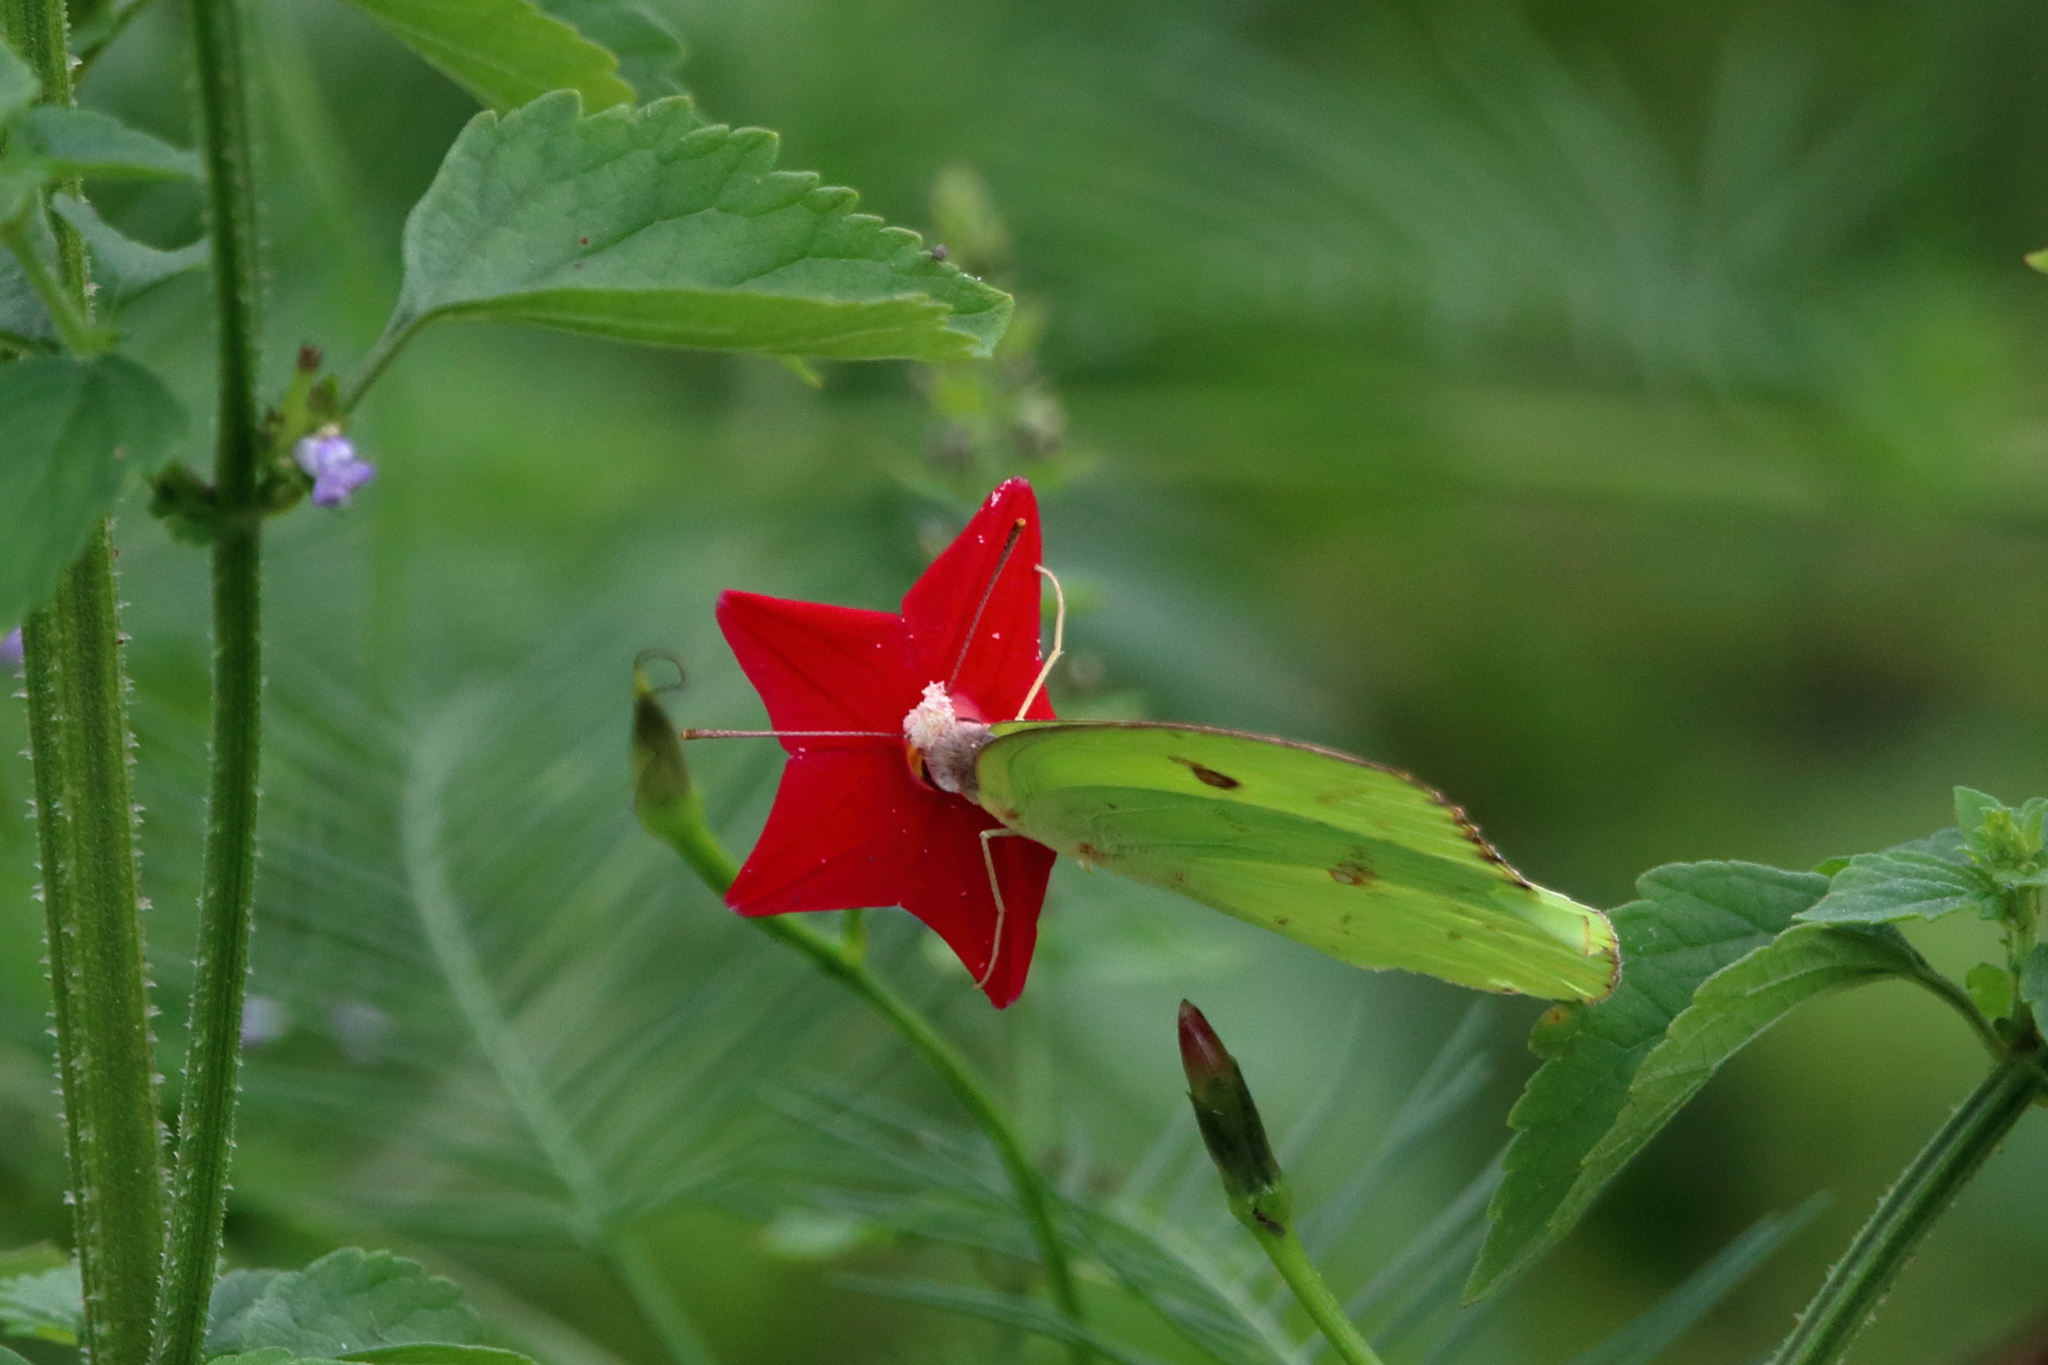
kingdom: Animalia
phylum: Arthropoda
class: Insecta
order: Lepidoptera
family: Pieridae
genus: Phoebis
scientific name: Phoebis sennae
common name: Cloudless sulphur
